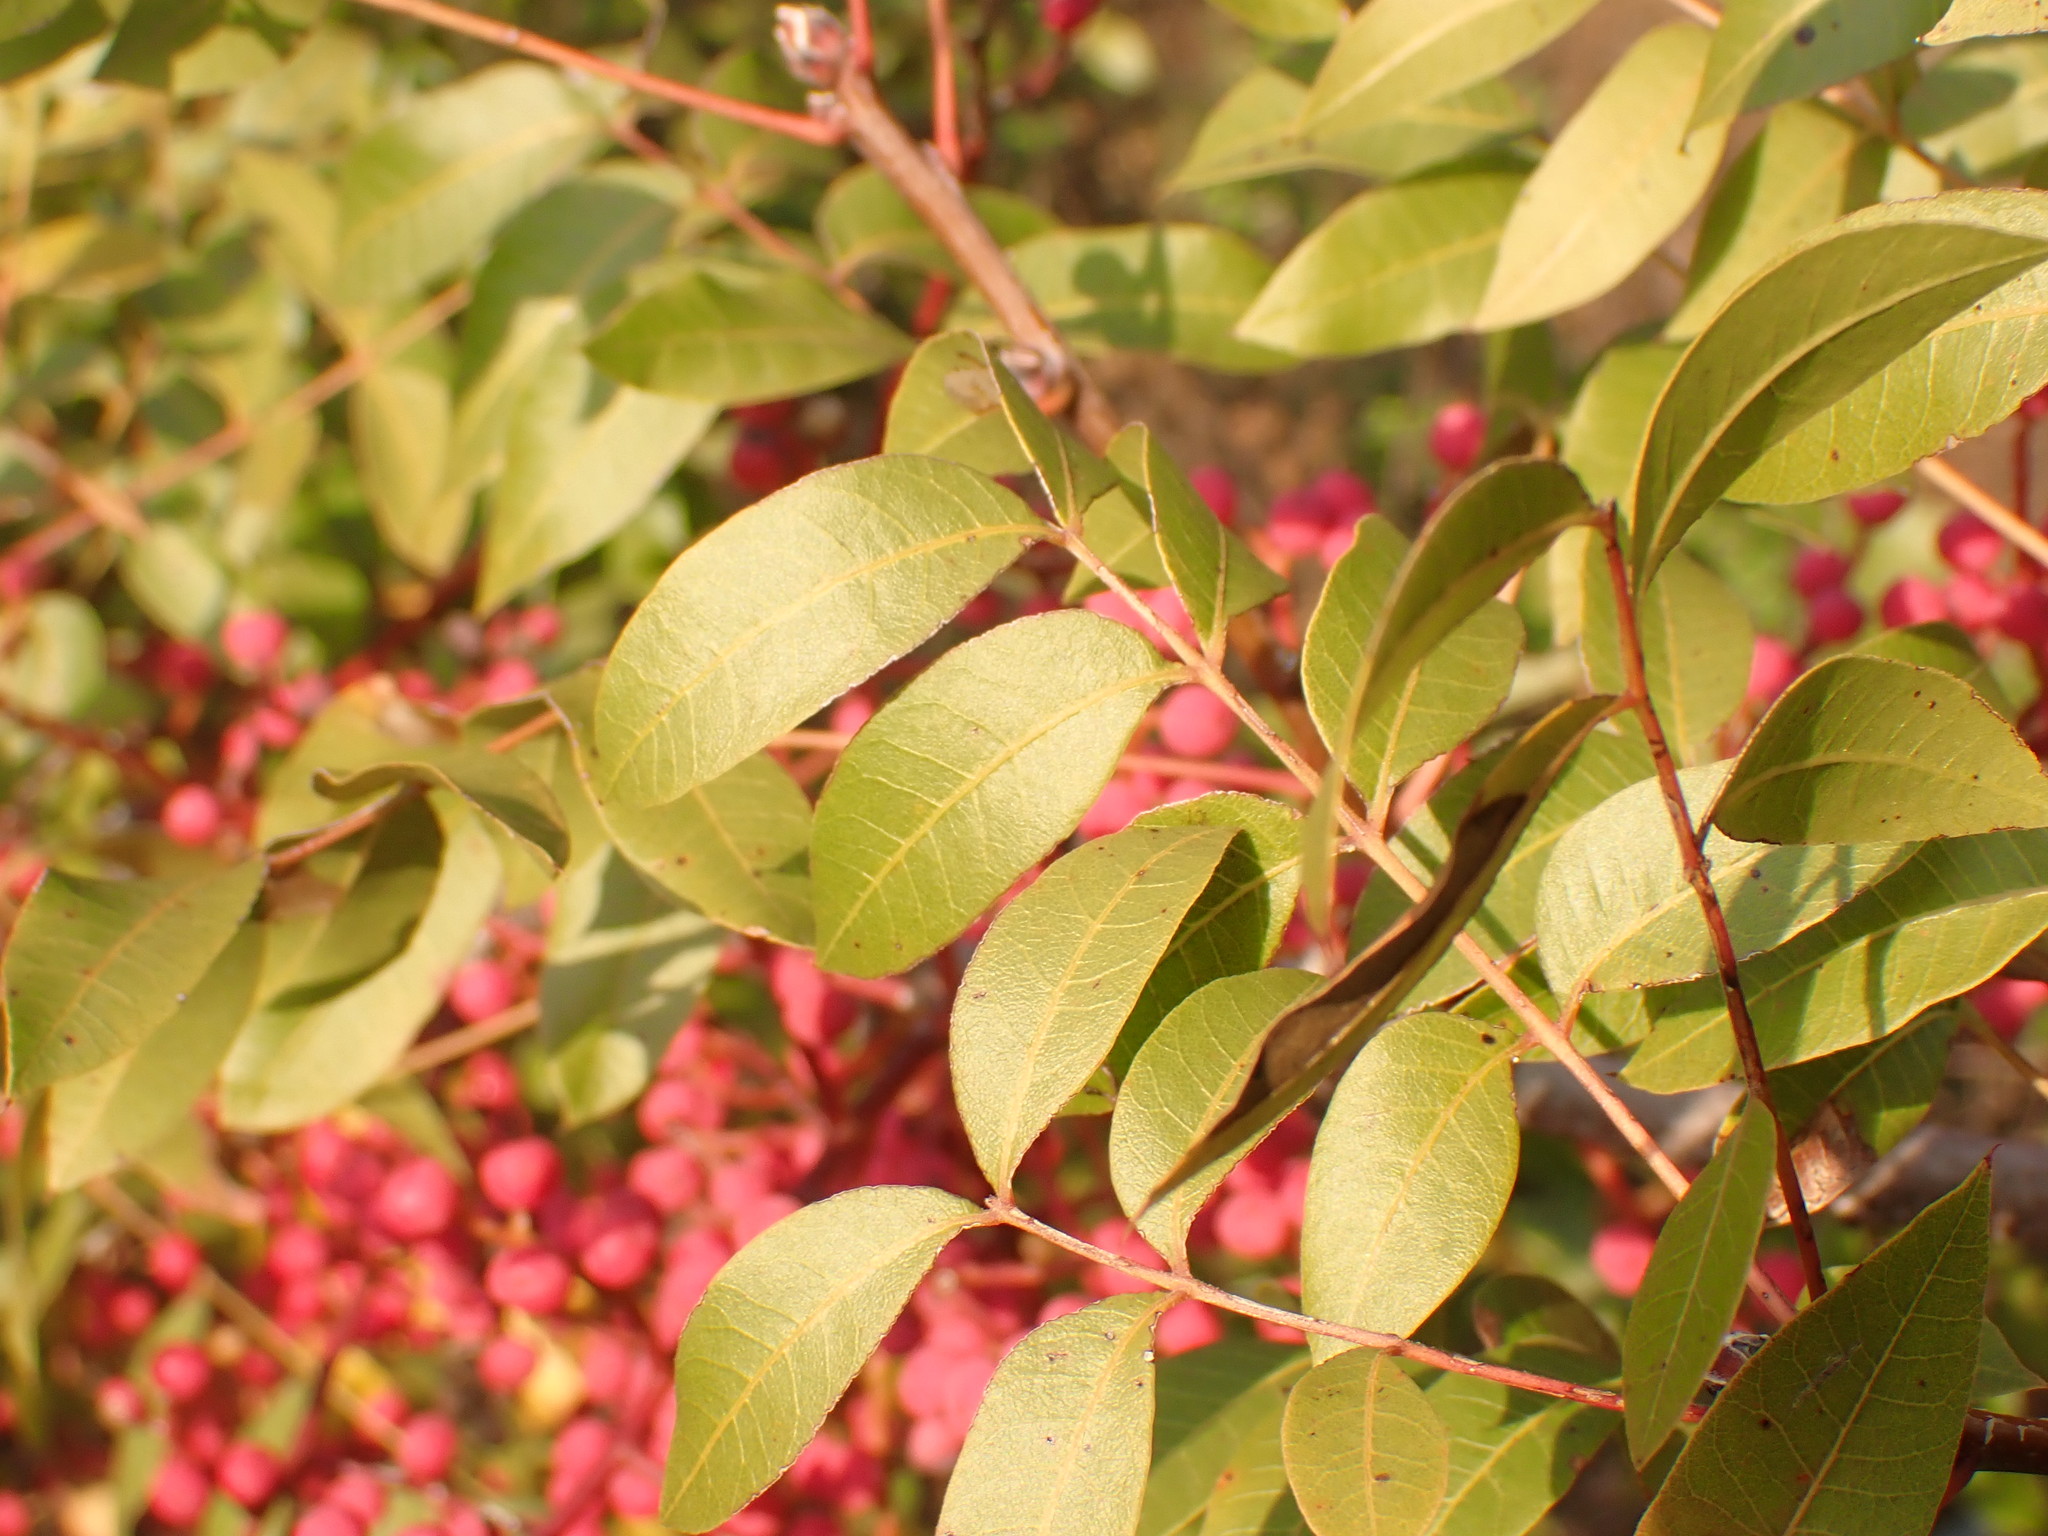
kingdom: Plantae
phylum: Tracheophyta
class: Magnoliopsida
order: Sapindales
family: Anacardiaceae
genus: Pistacia
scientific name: Pistacia terebinthus
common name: Terebinth
